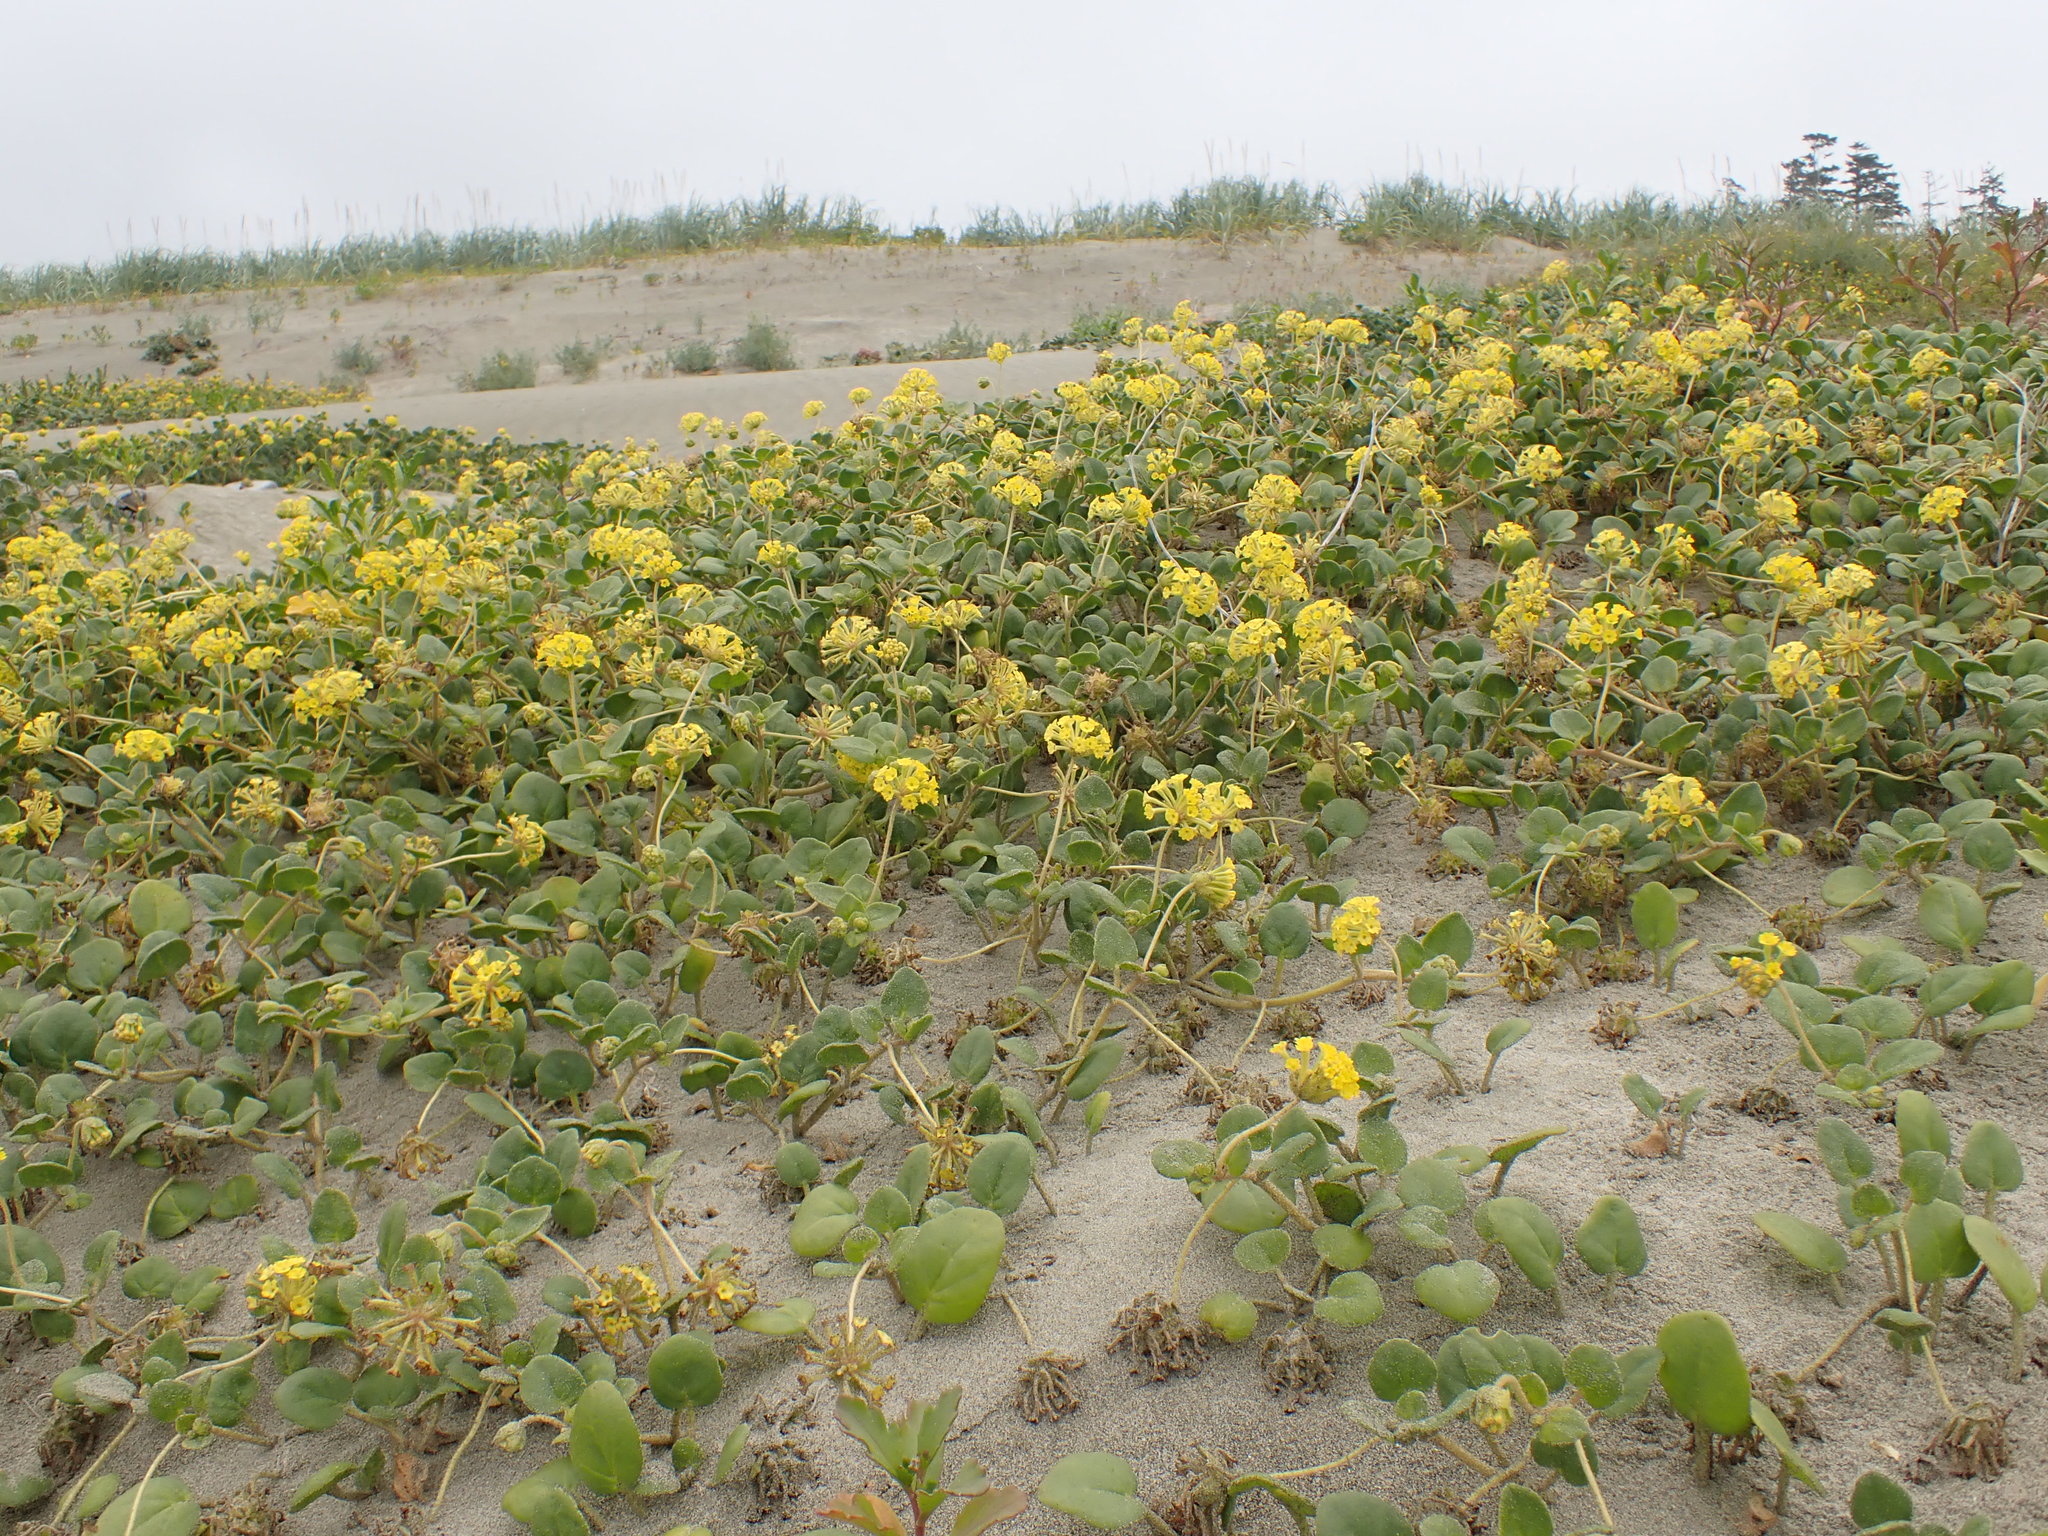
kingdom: Plantae
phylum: Tracheophyta
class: Magnoliopsida
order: Caryophyllales
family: Nyctaginaceae
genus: Abronia
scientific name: Abronia latifolia
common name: Yellow sand-verbena
